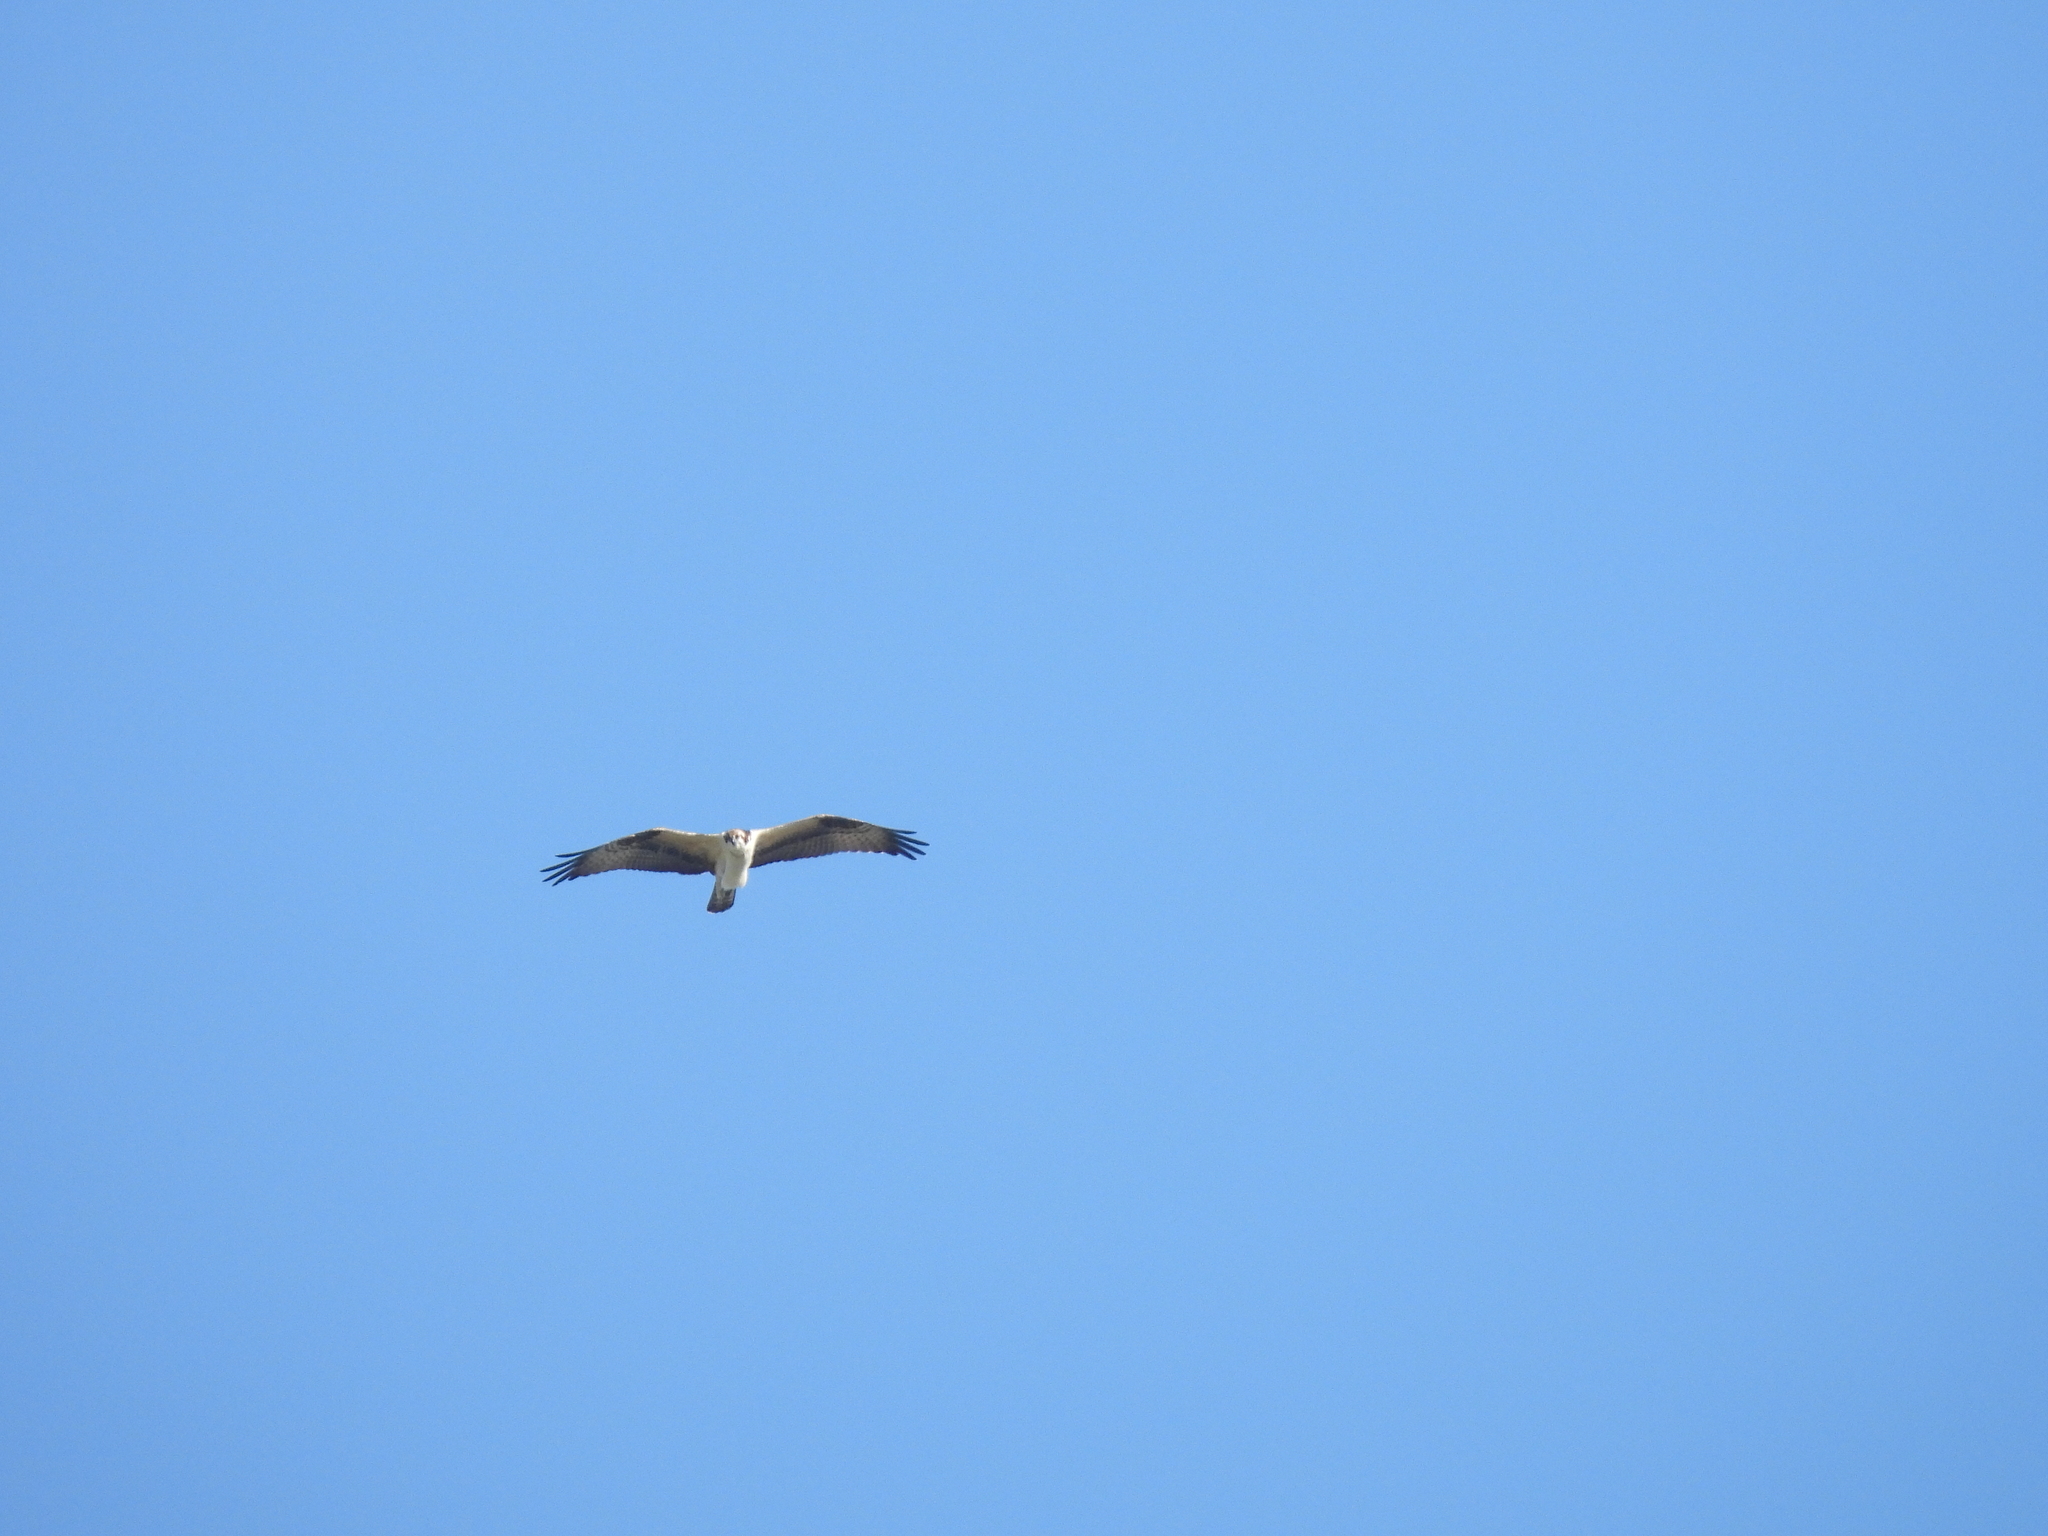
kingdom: Animalia
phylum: Chordata
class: Aves
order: Accipitriformes
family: Pandionidae
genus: Pandion
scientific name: Pandion haliaetus
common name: Osprey
